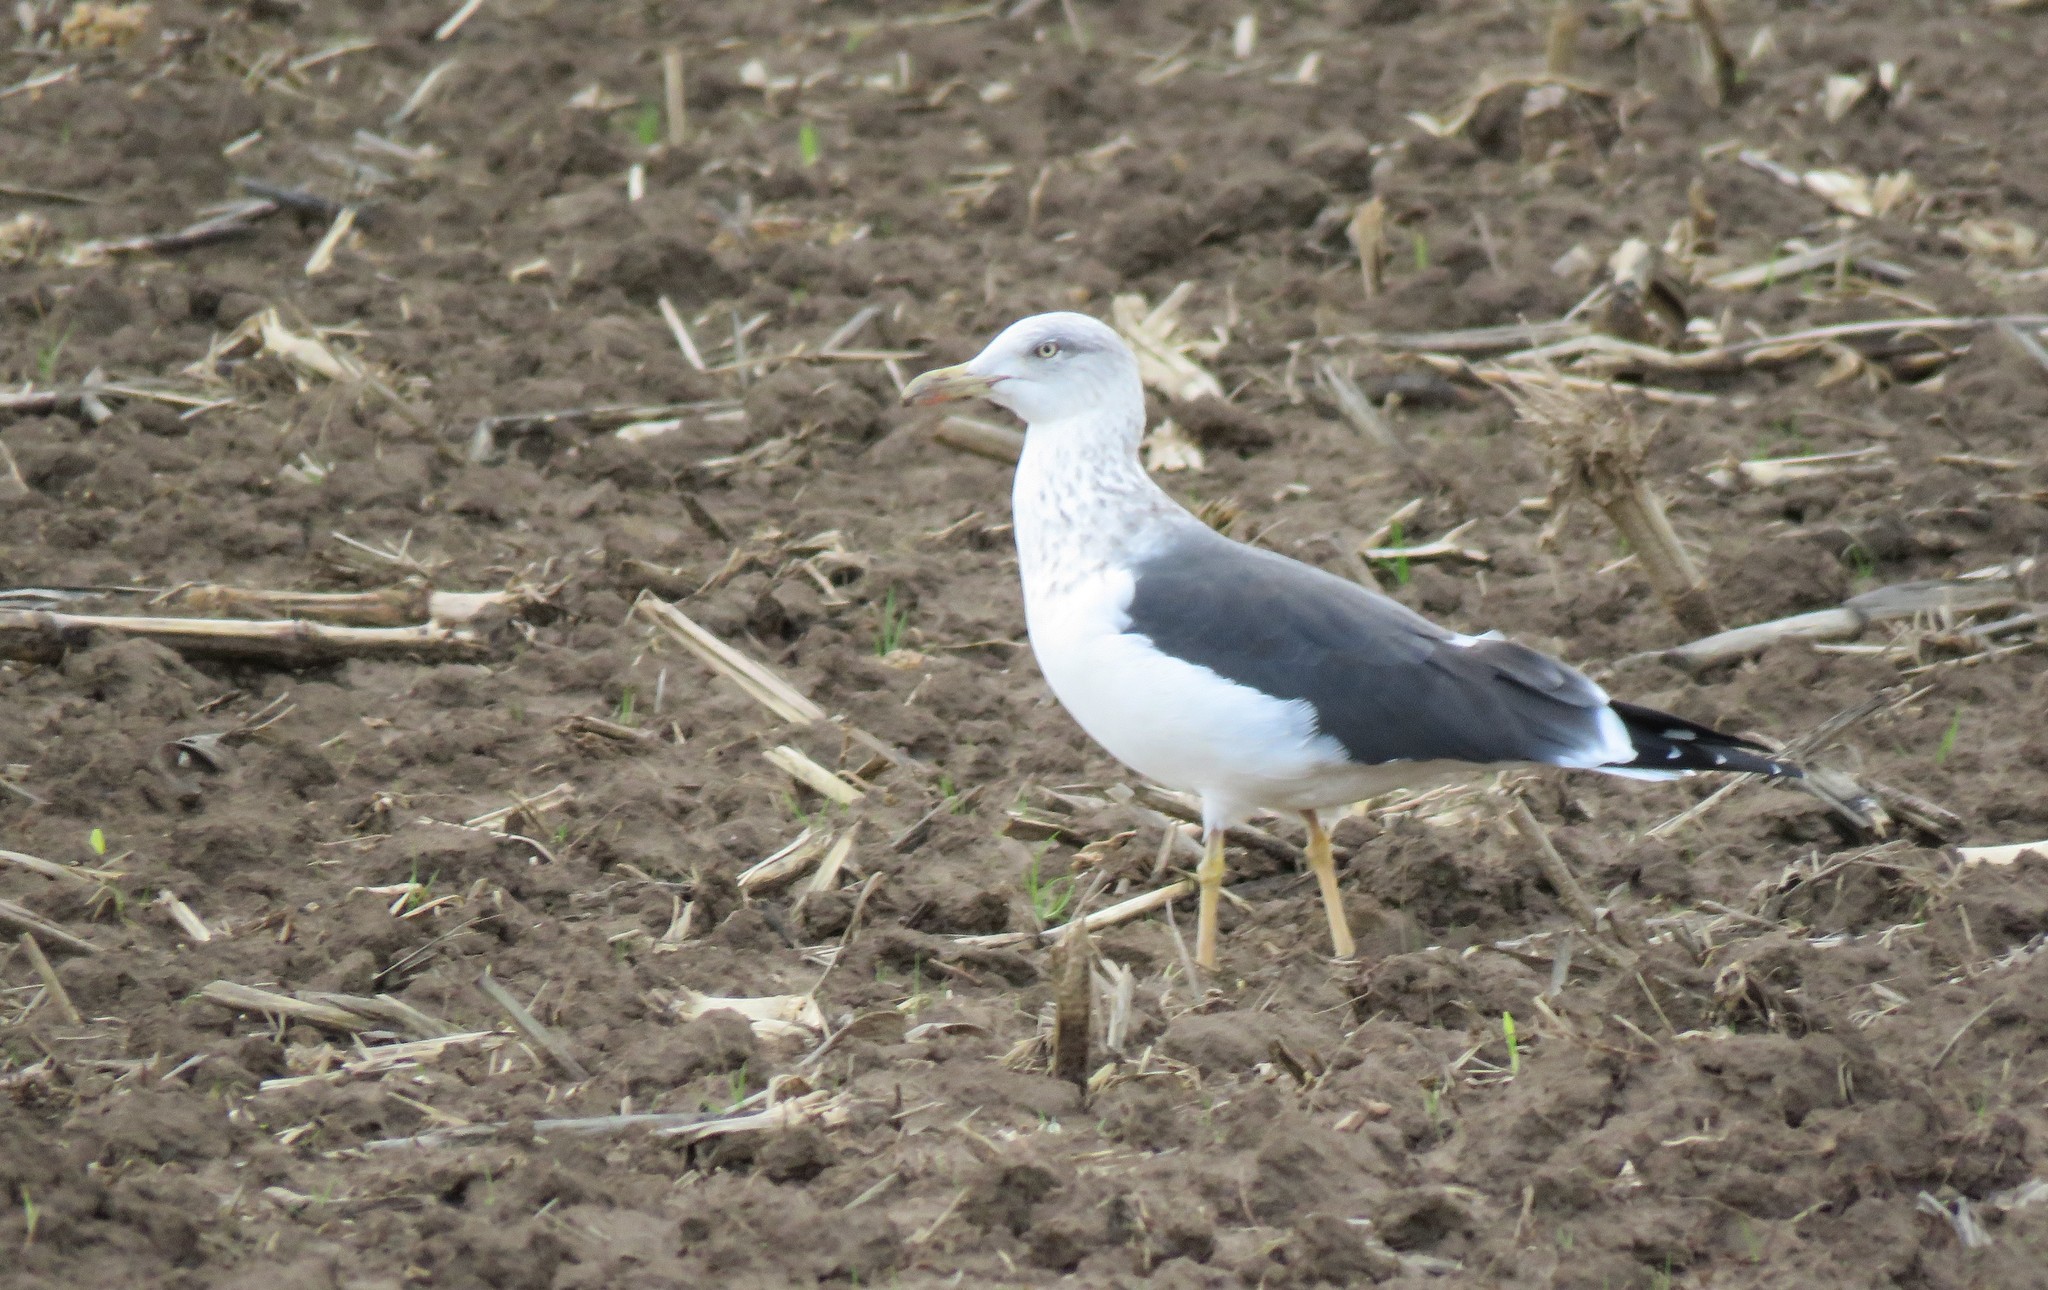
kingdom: Animalia
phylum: Chordata
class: Aves
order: Charadriiformes
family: Laridae
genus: Larus
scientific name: Larus fuscus
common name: Lesser black-backed gull
